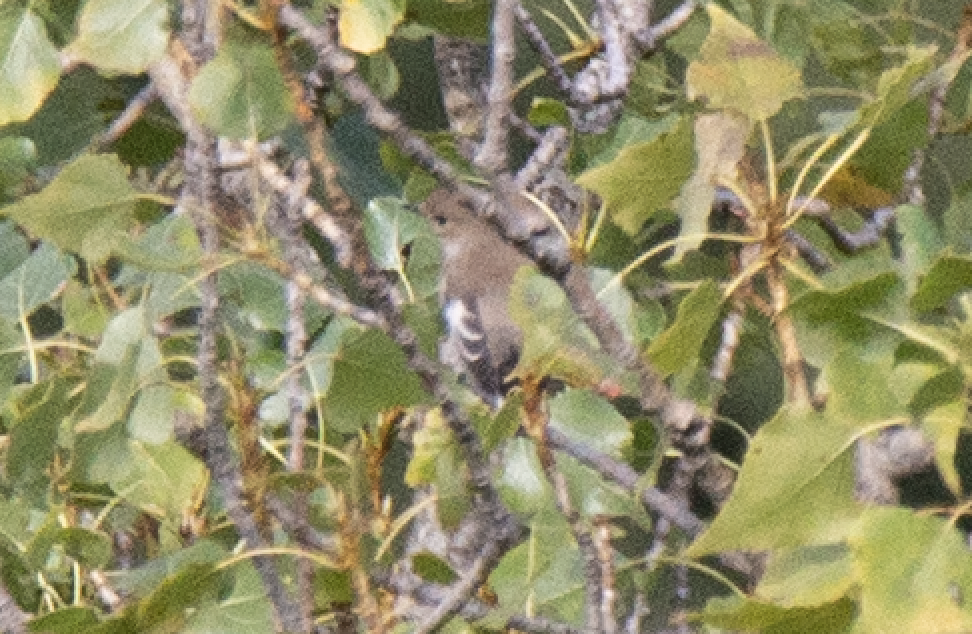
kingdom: Animalia
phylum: Chordata
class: Aves
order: Passeriformes
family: Muscicapidae
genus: Ficedula
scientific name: Ficedula hypoleuca
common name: European pied flycatcher
